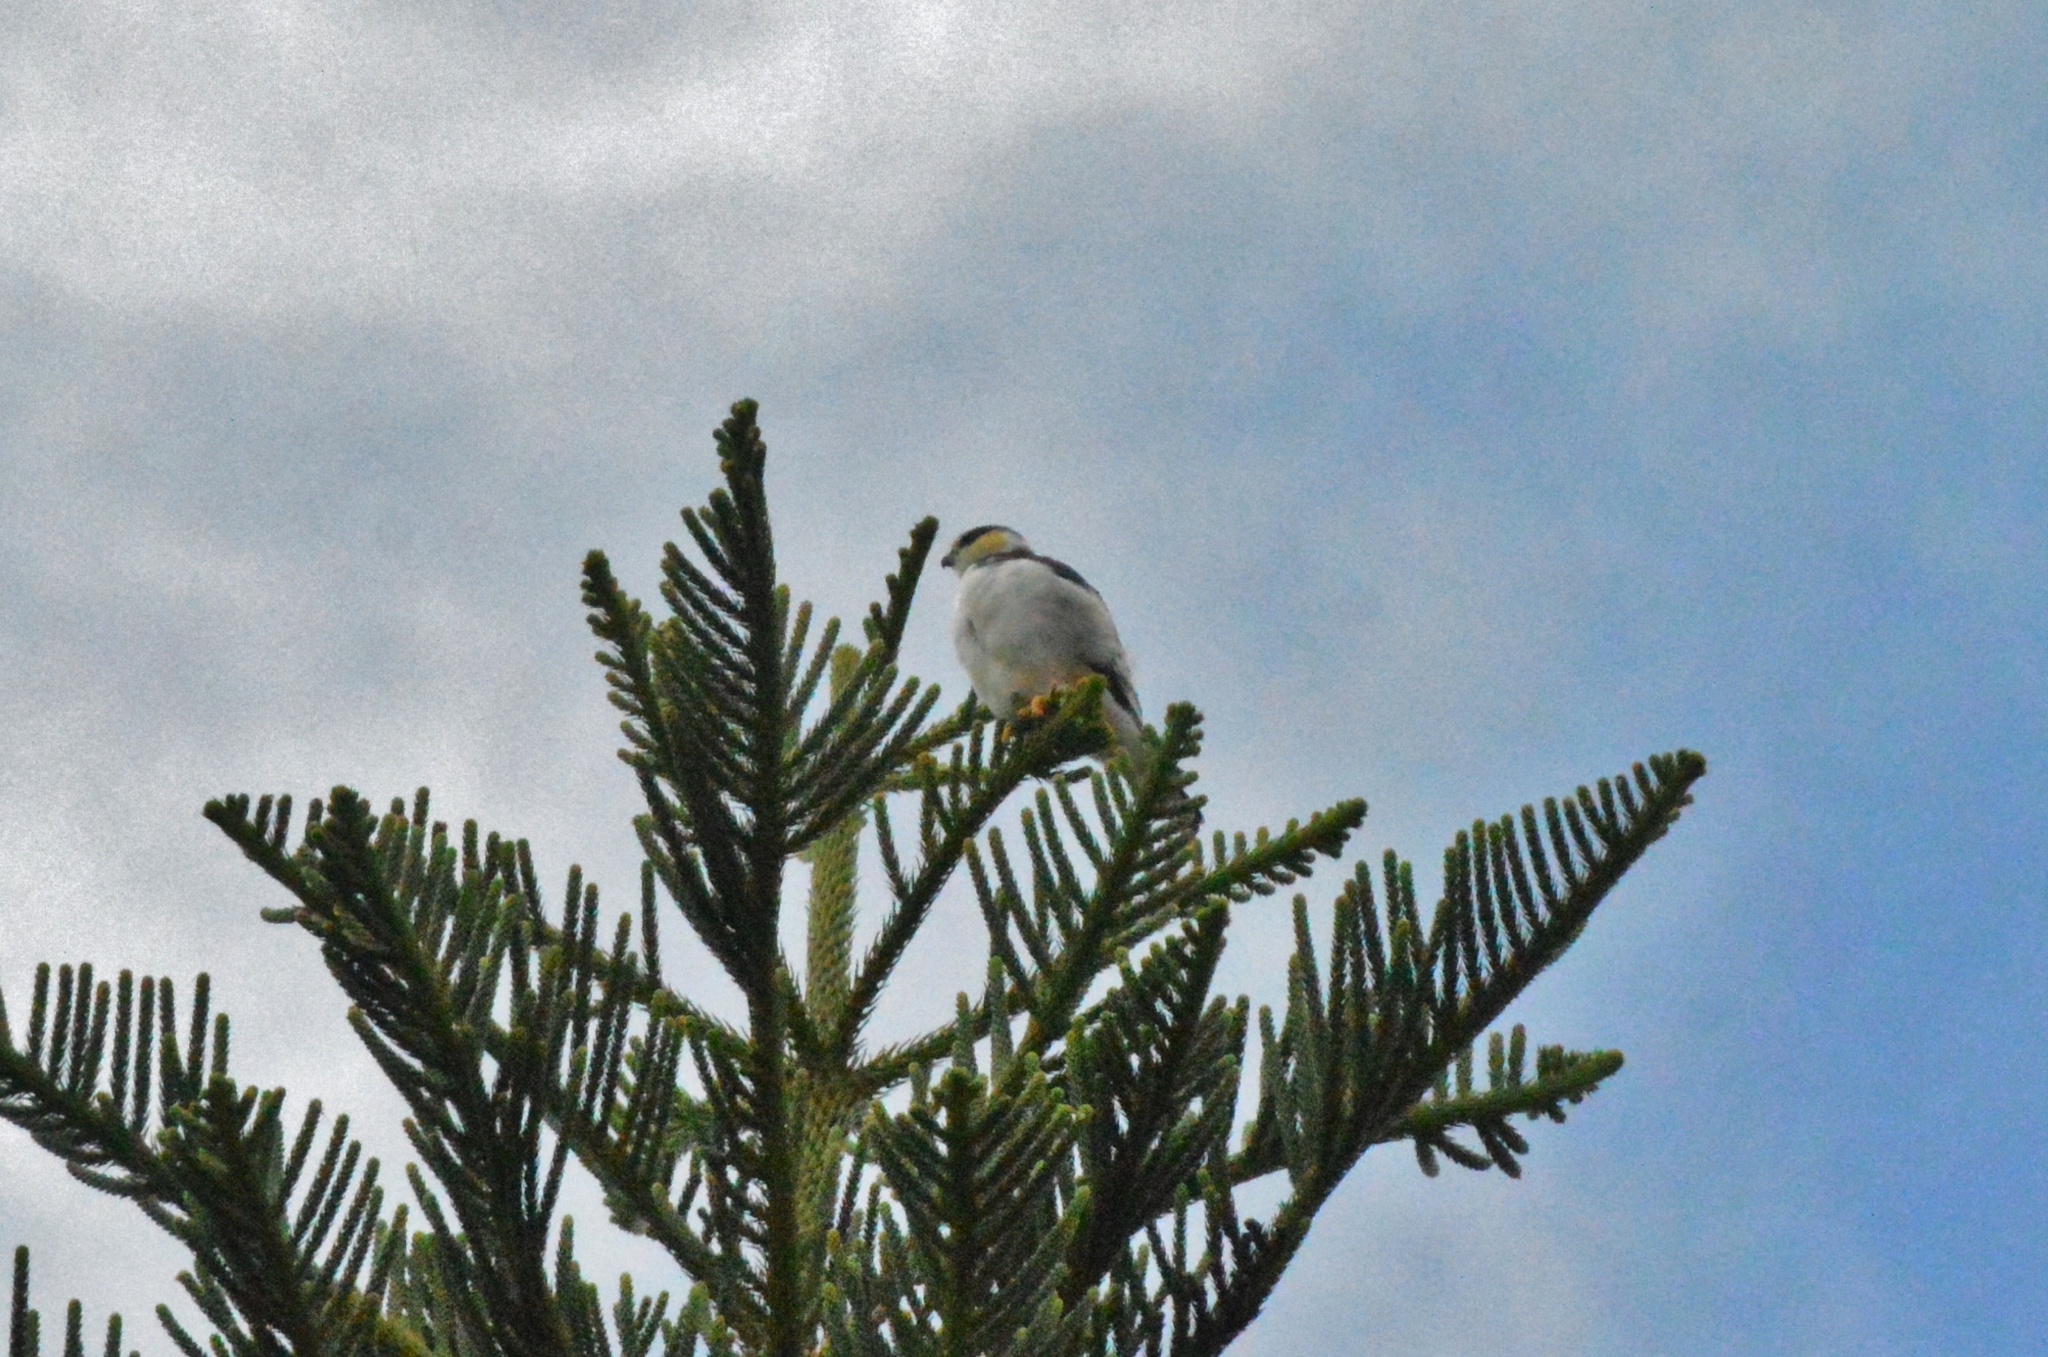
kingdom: Animalia
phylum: Chordata
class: Aves
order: Accipitriformes
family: Accipitridae
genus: Gampsonyx
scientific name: Gampsonyx swainsonii
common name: Pearl kite
